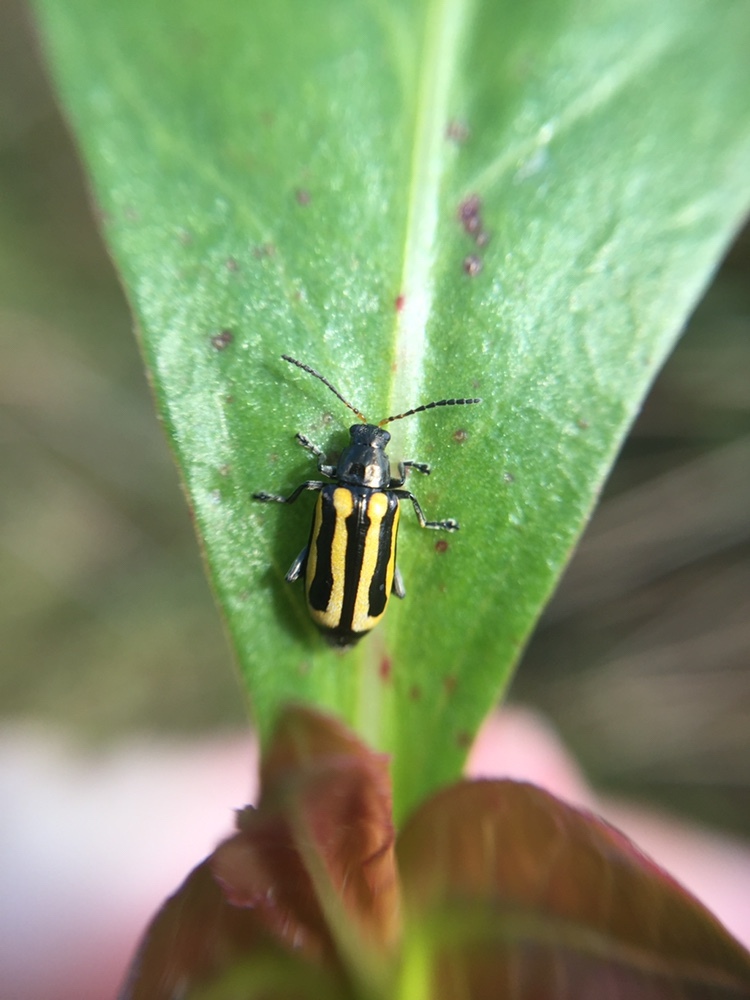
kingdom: Animalia
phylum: Arthropoda
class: Insecta
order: Coleoptera
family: Chrysomelidae
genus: Agasicles
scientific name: Agasicles hygrophila
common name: Alligatorweed flea beetle
